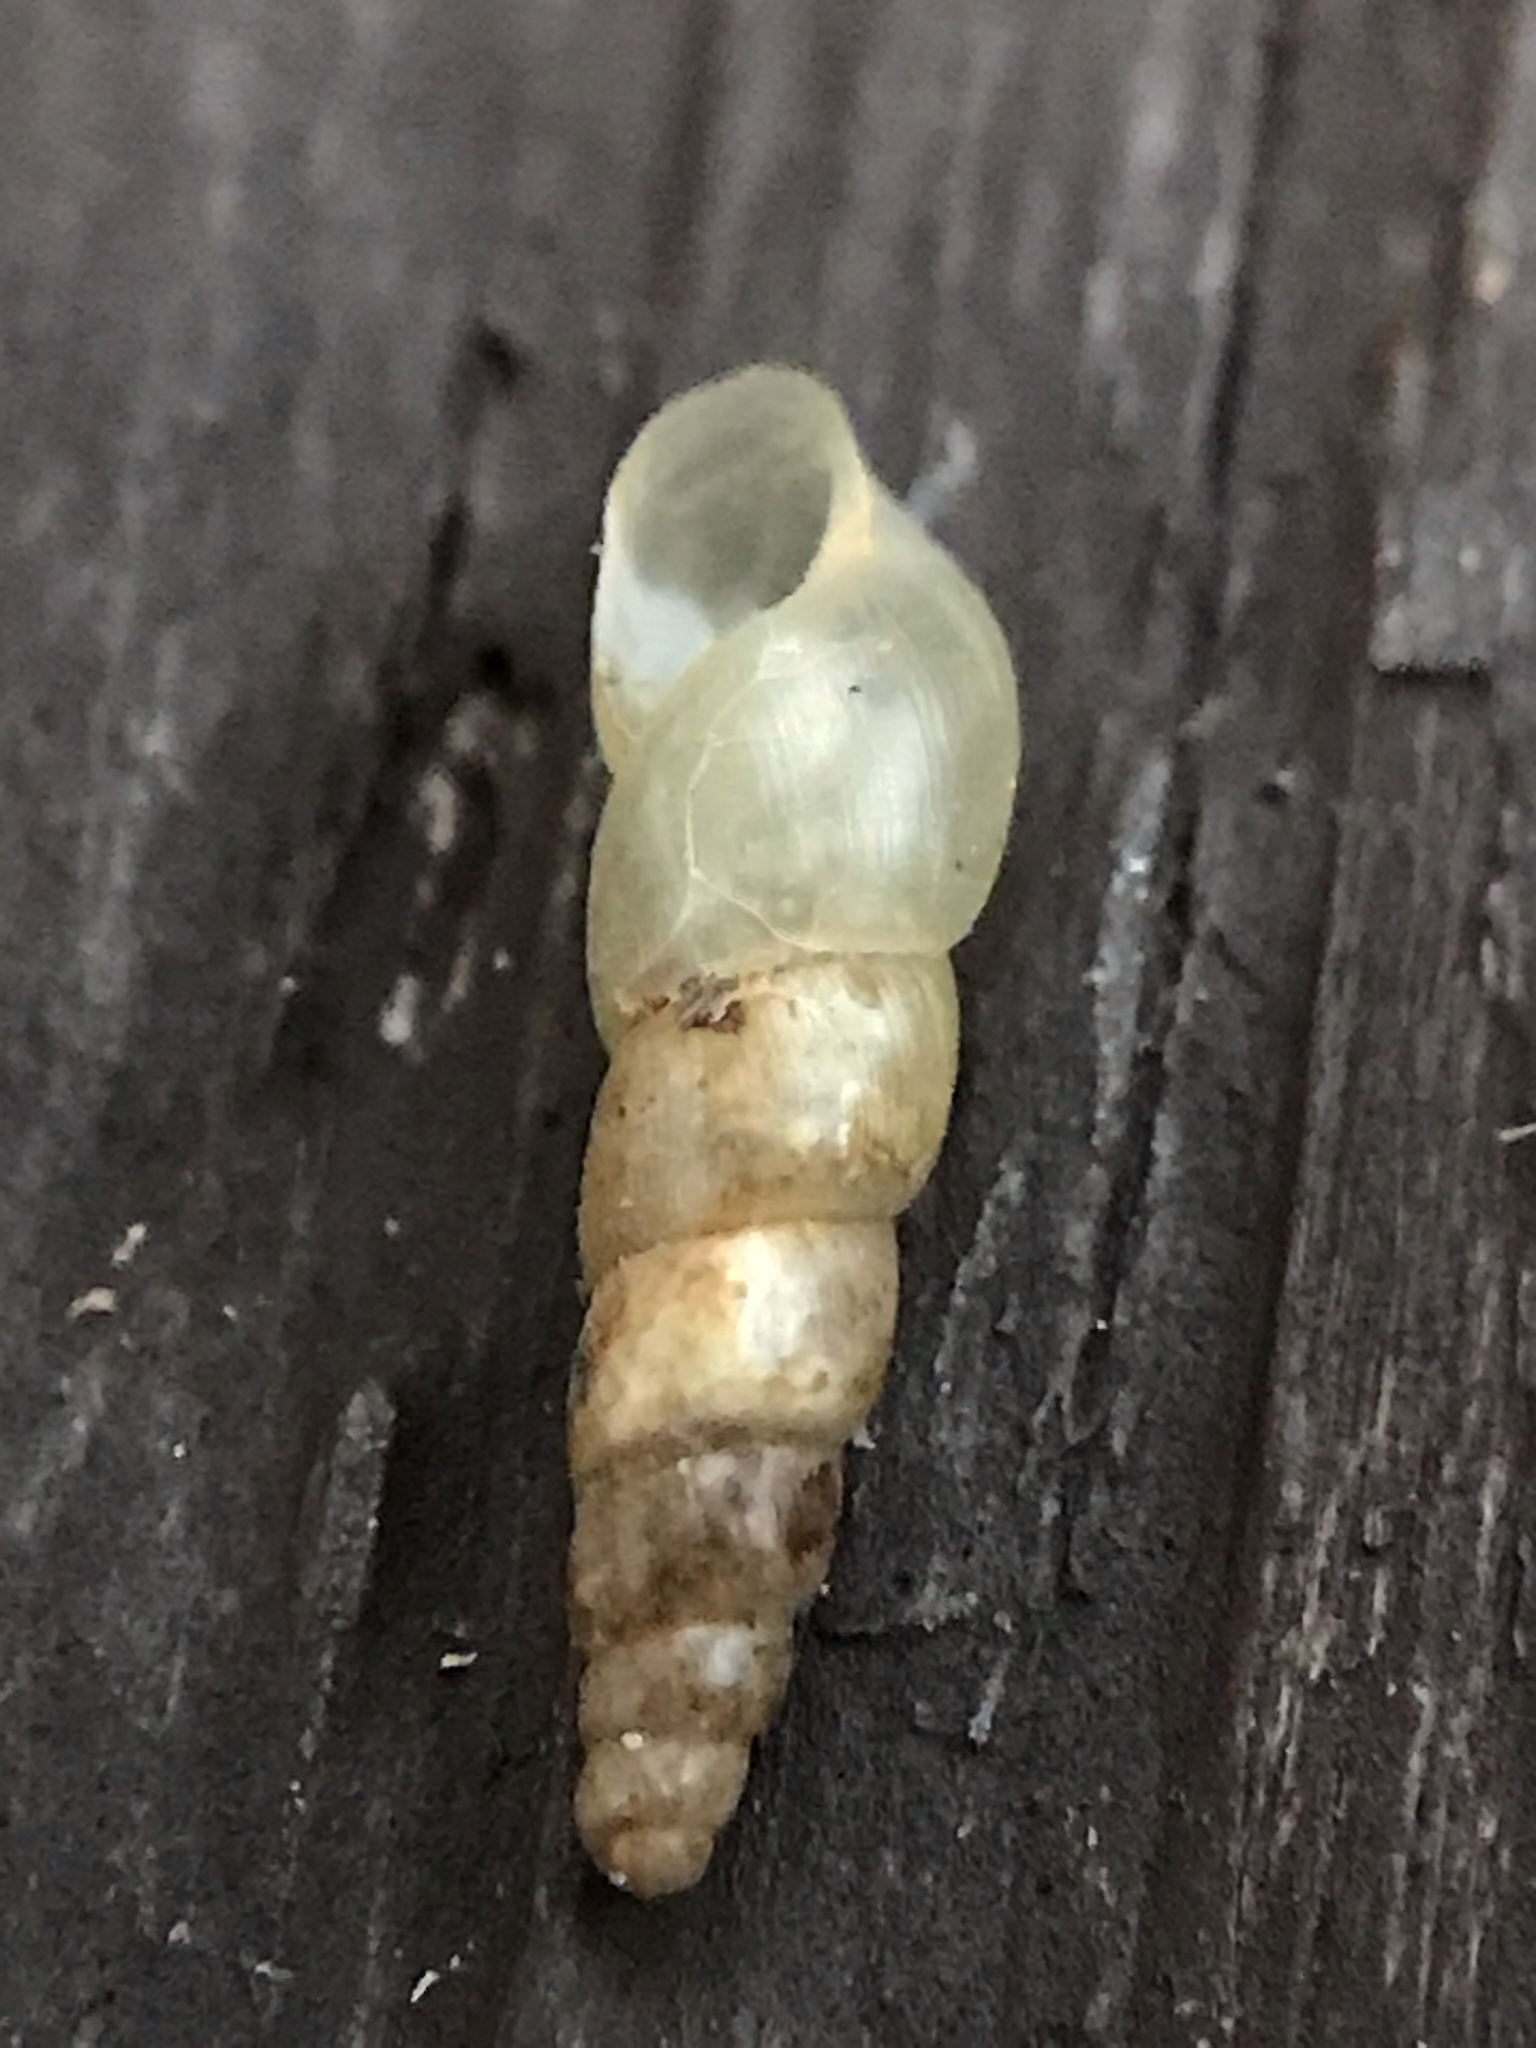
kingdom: Animalia
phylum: Mollusca
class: Gastropoda
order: Stylommatophora
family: Achatinidae
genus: Subulina
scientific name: Subulina octona
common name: Miniature awlsnail
